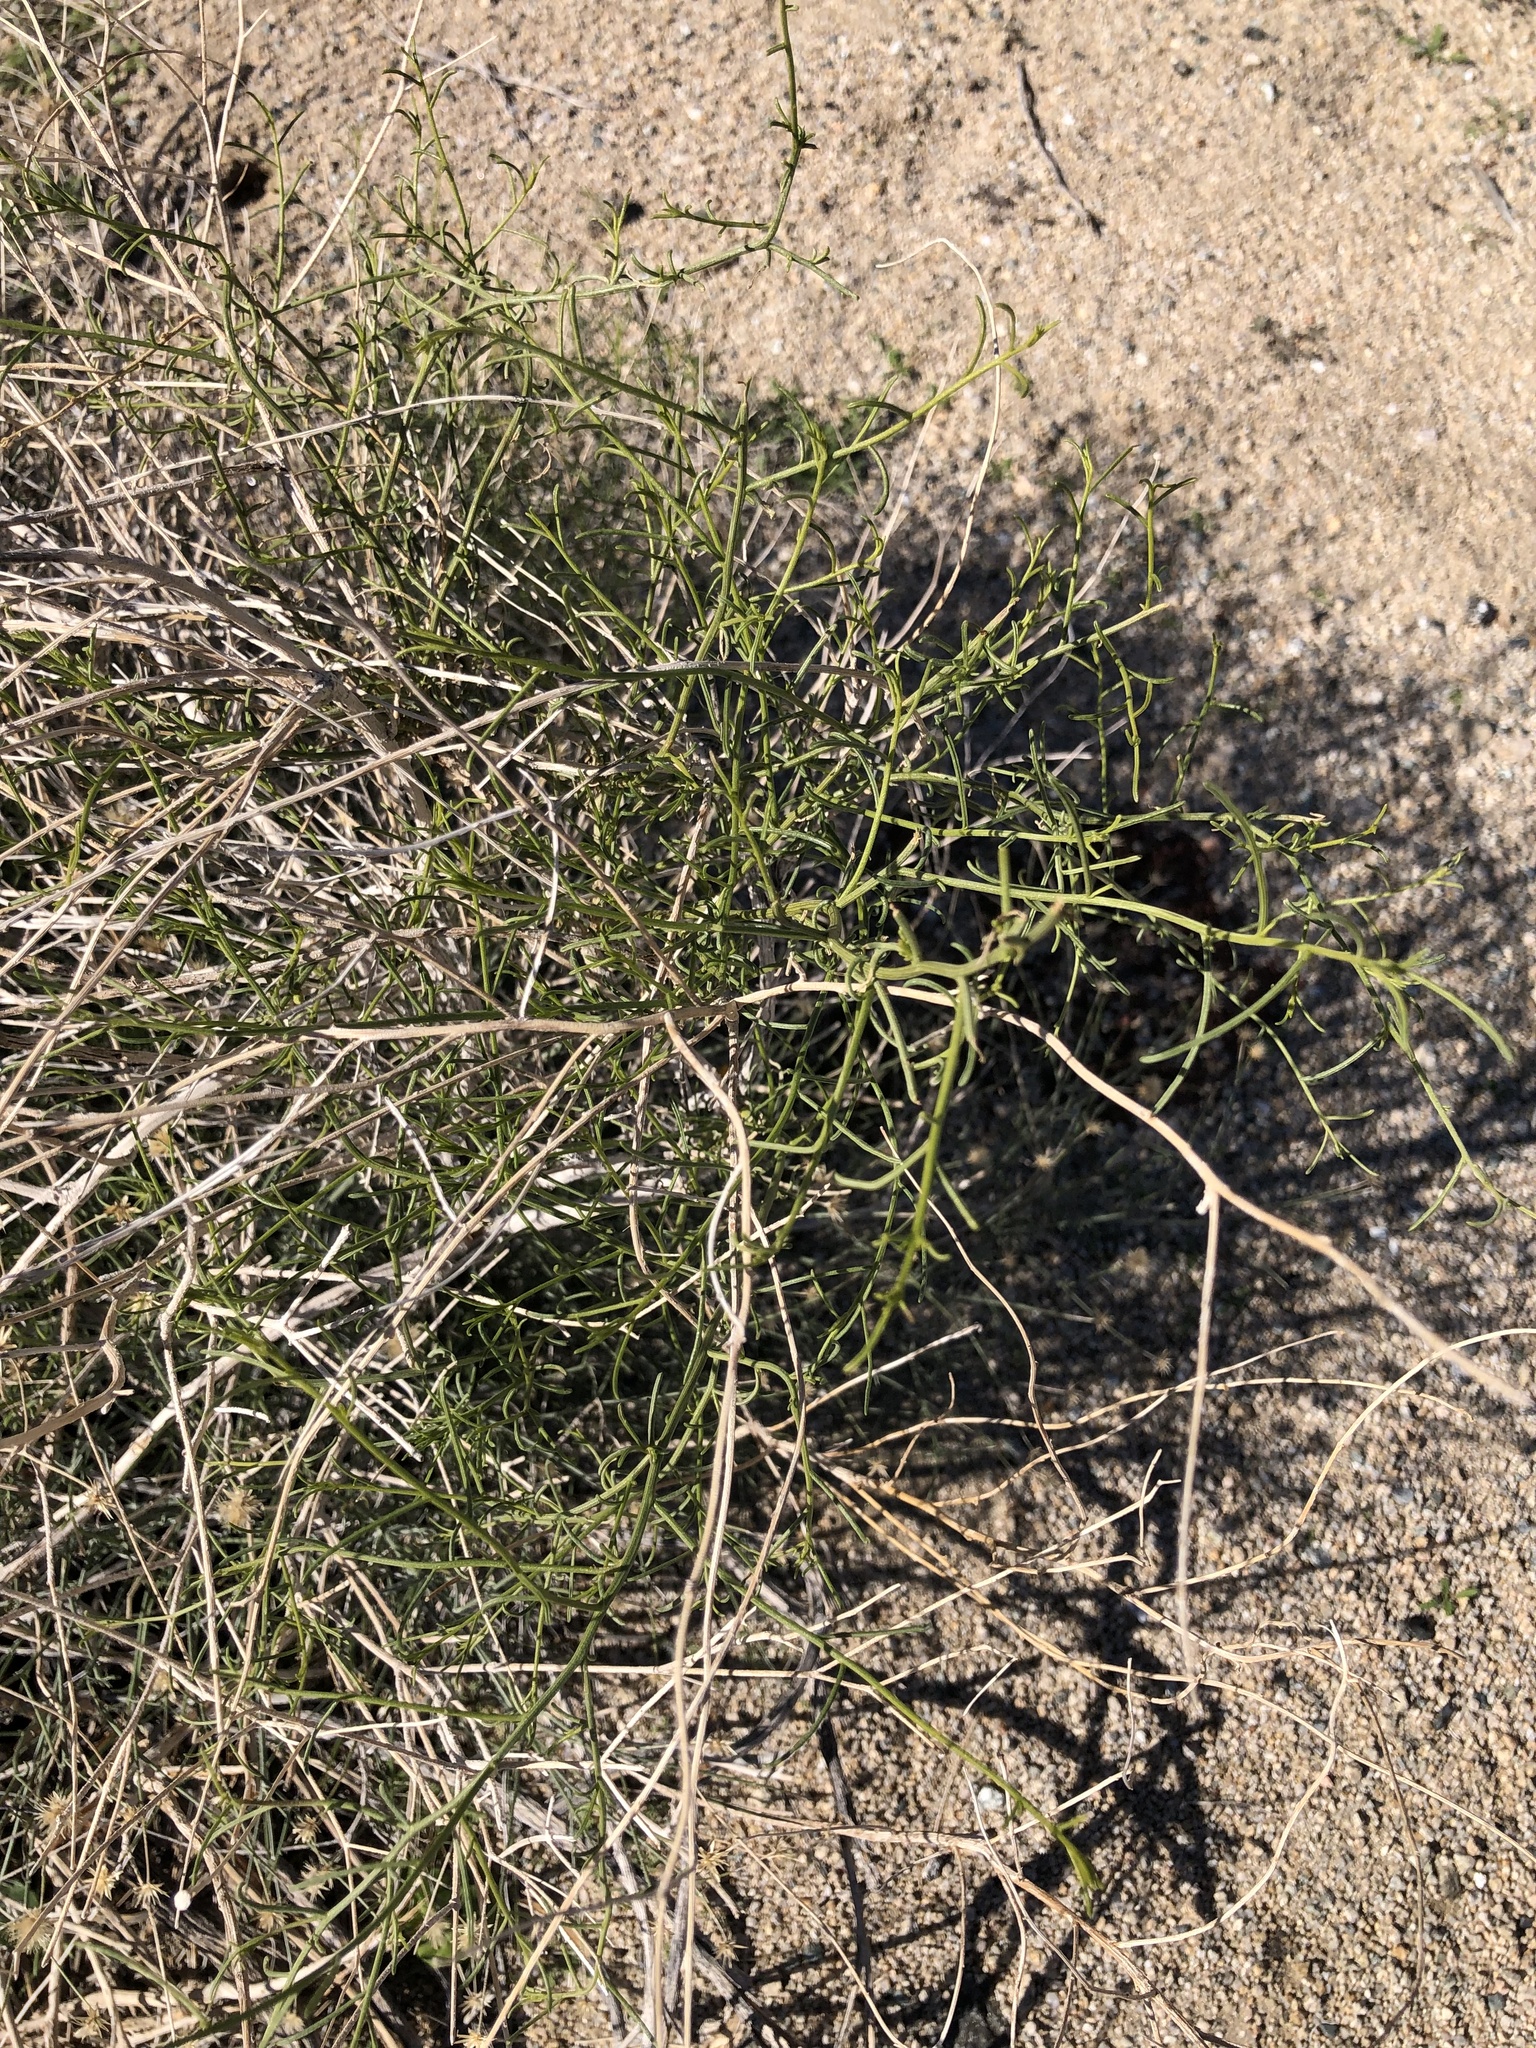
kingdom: Plantae
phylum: Tracheophyta
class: Magnoliopsida
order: Asterales
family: Asteraceae
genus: Bebbia
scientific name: Bebbia juncea
